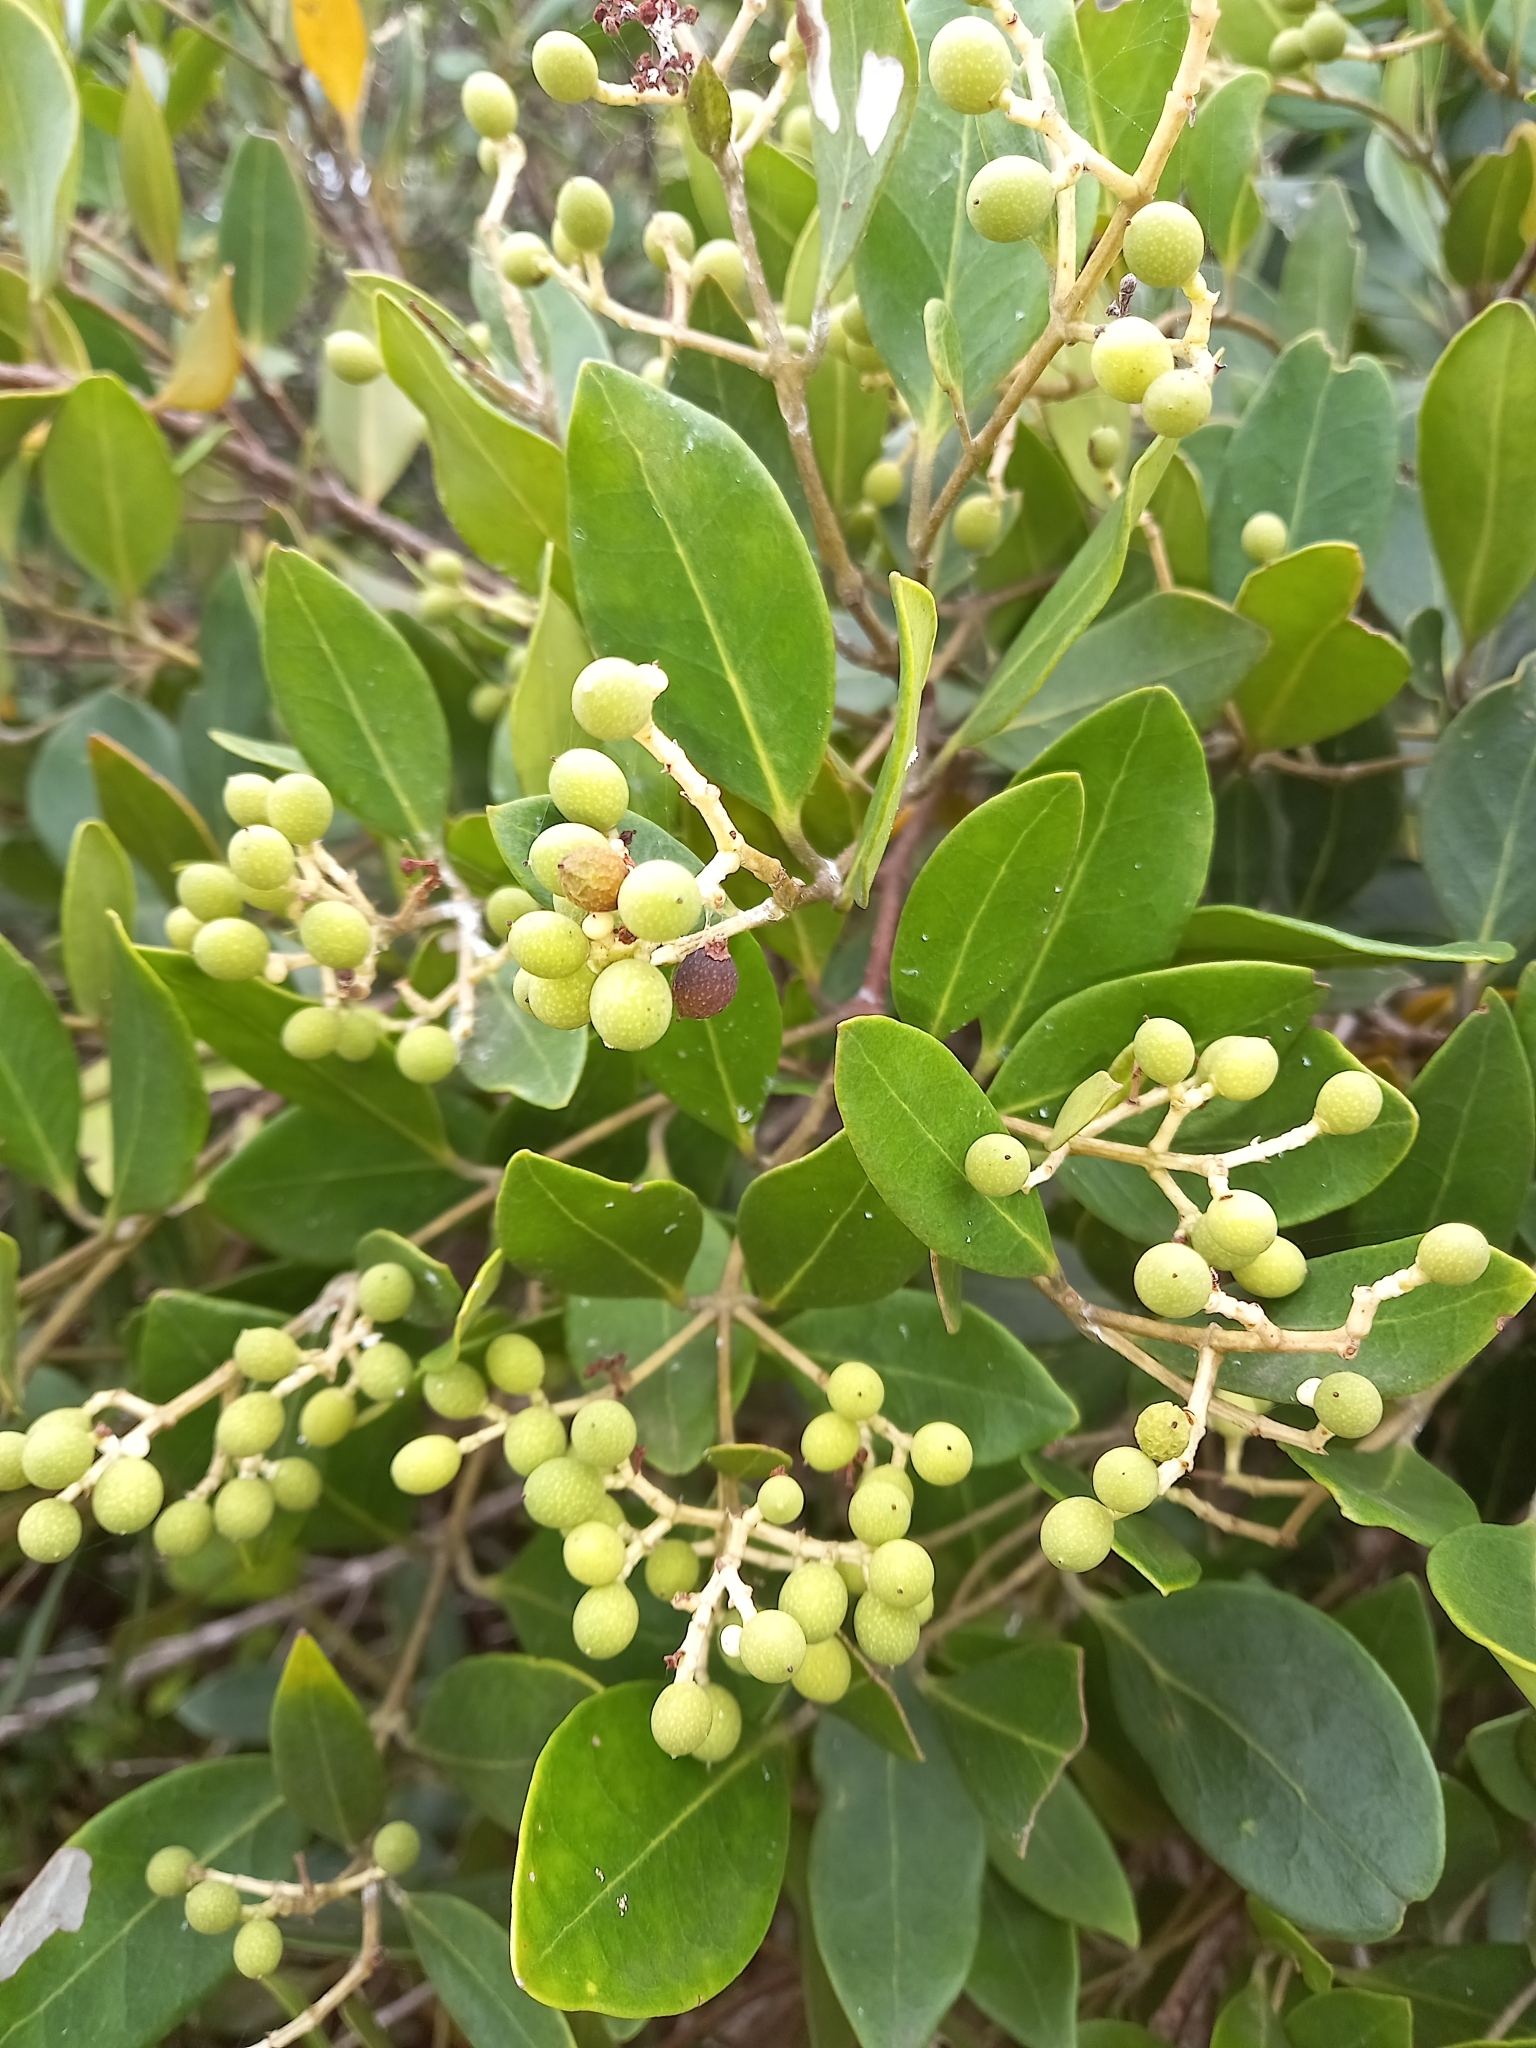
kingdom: Plantae
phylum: Tracheophyta
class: Magnoliopsida
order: Lamiales
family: Oleaceae
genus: Olea
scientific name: Olea capensis
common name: Black ironwood
